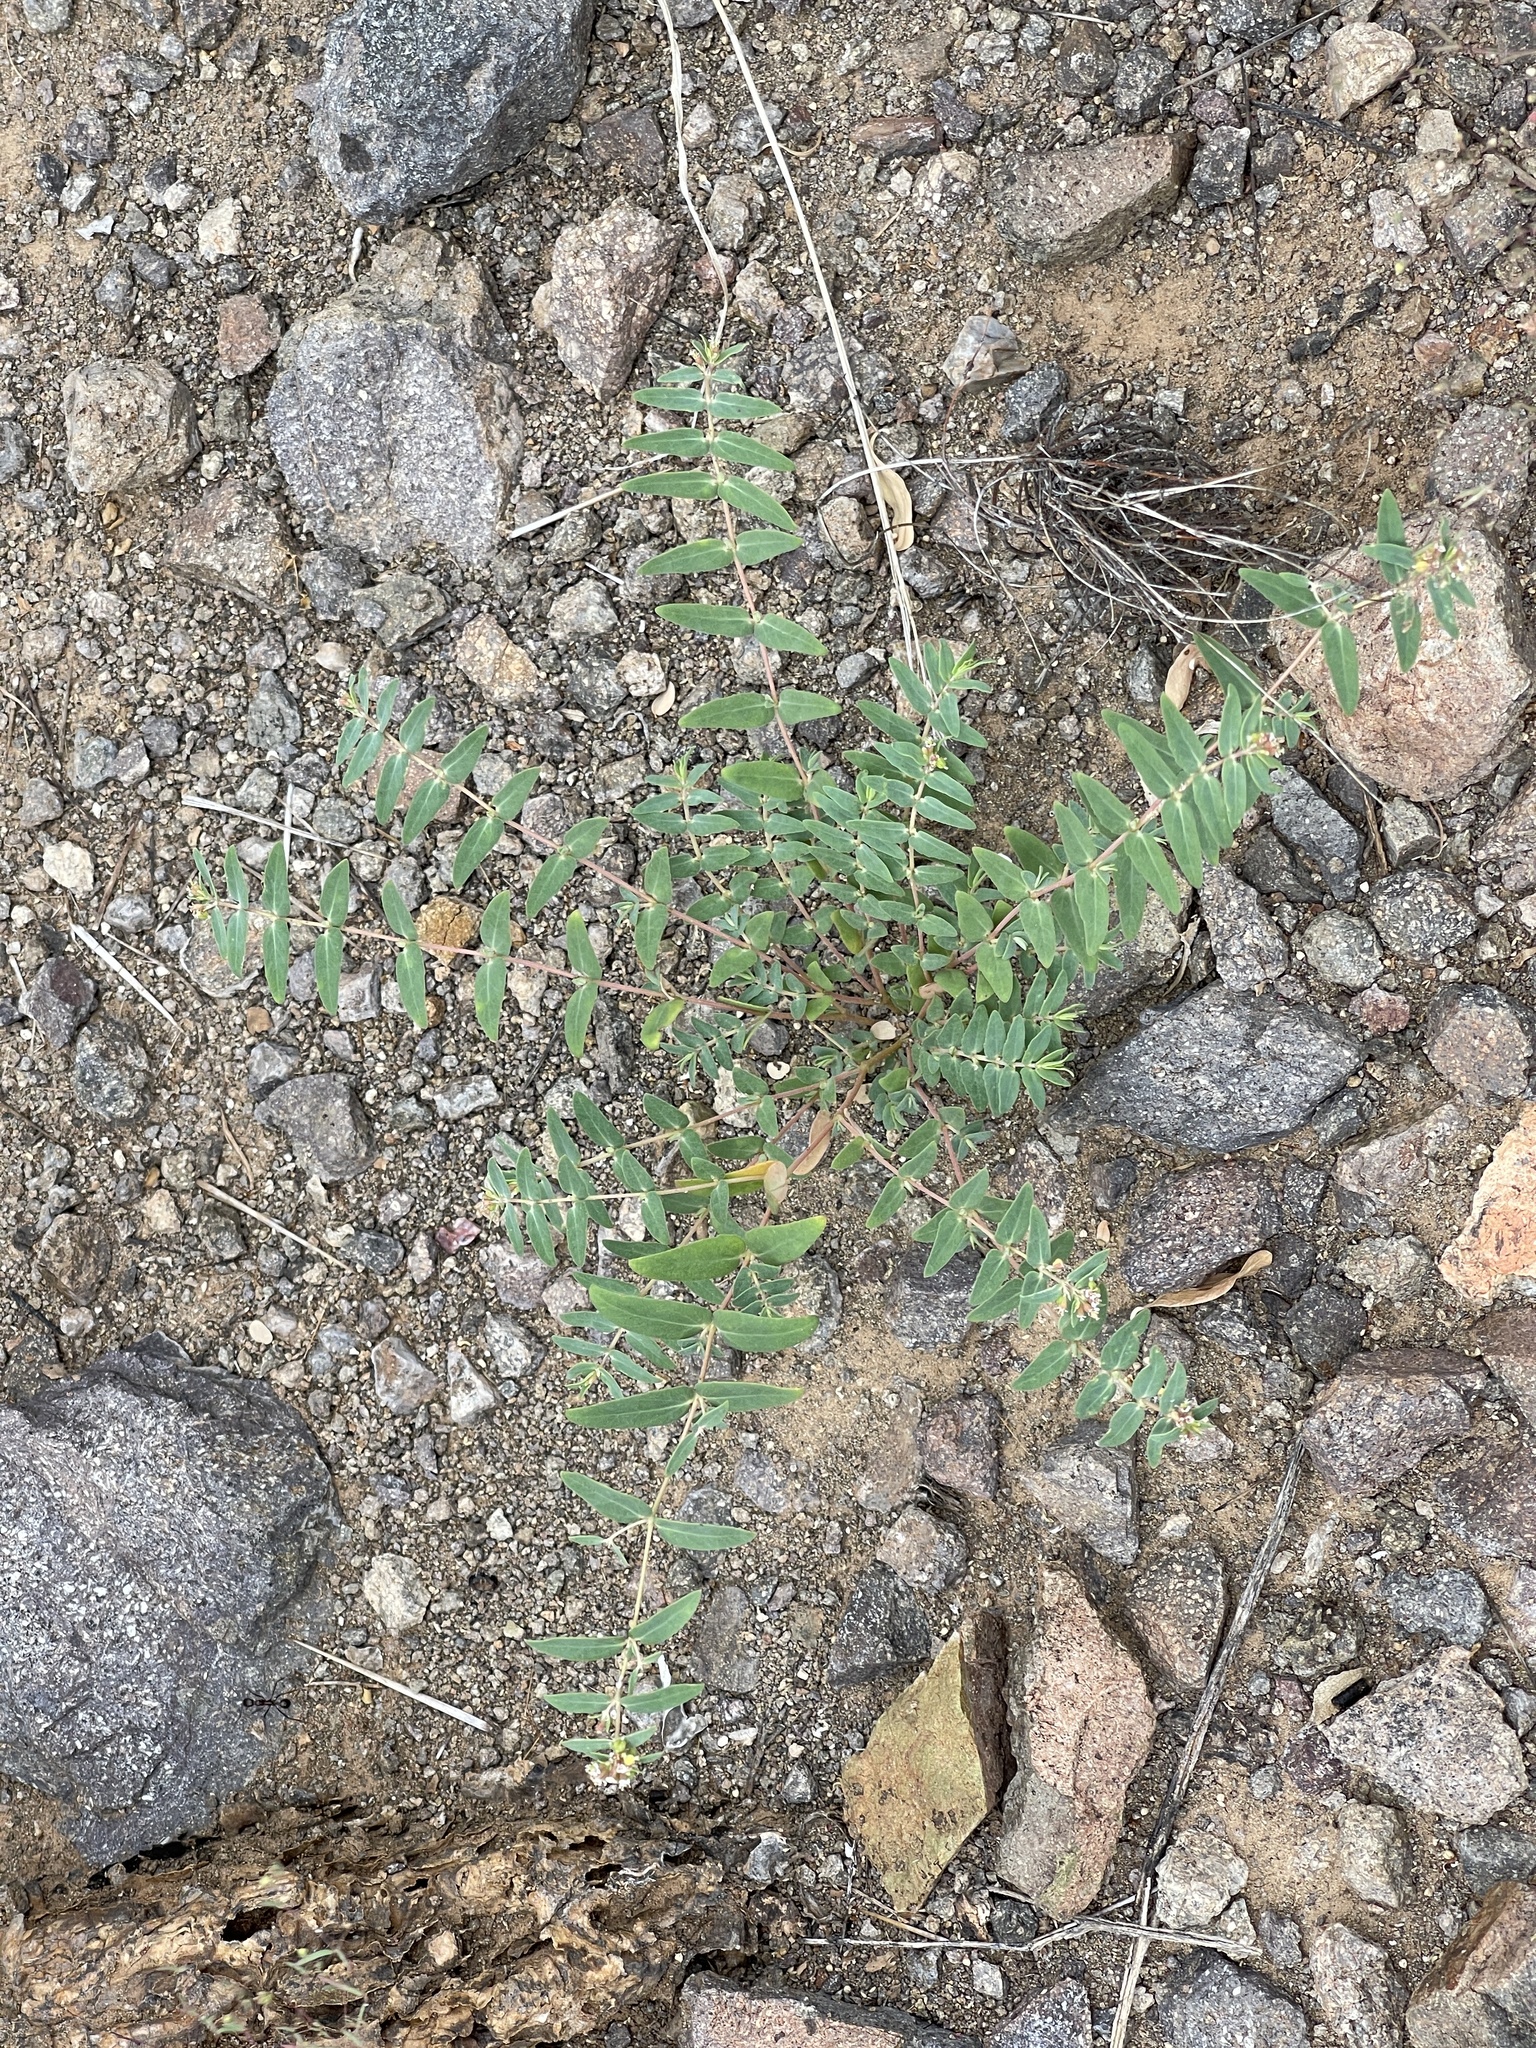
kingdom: Plantae
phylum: Tracheophyta
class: Magnoliopsida
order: Malpighiales
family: Euphorbiaceae
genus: Euphorbia
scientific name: Euphorbia capitellata
